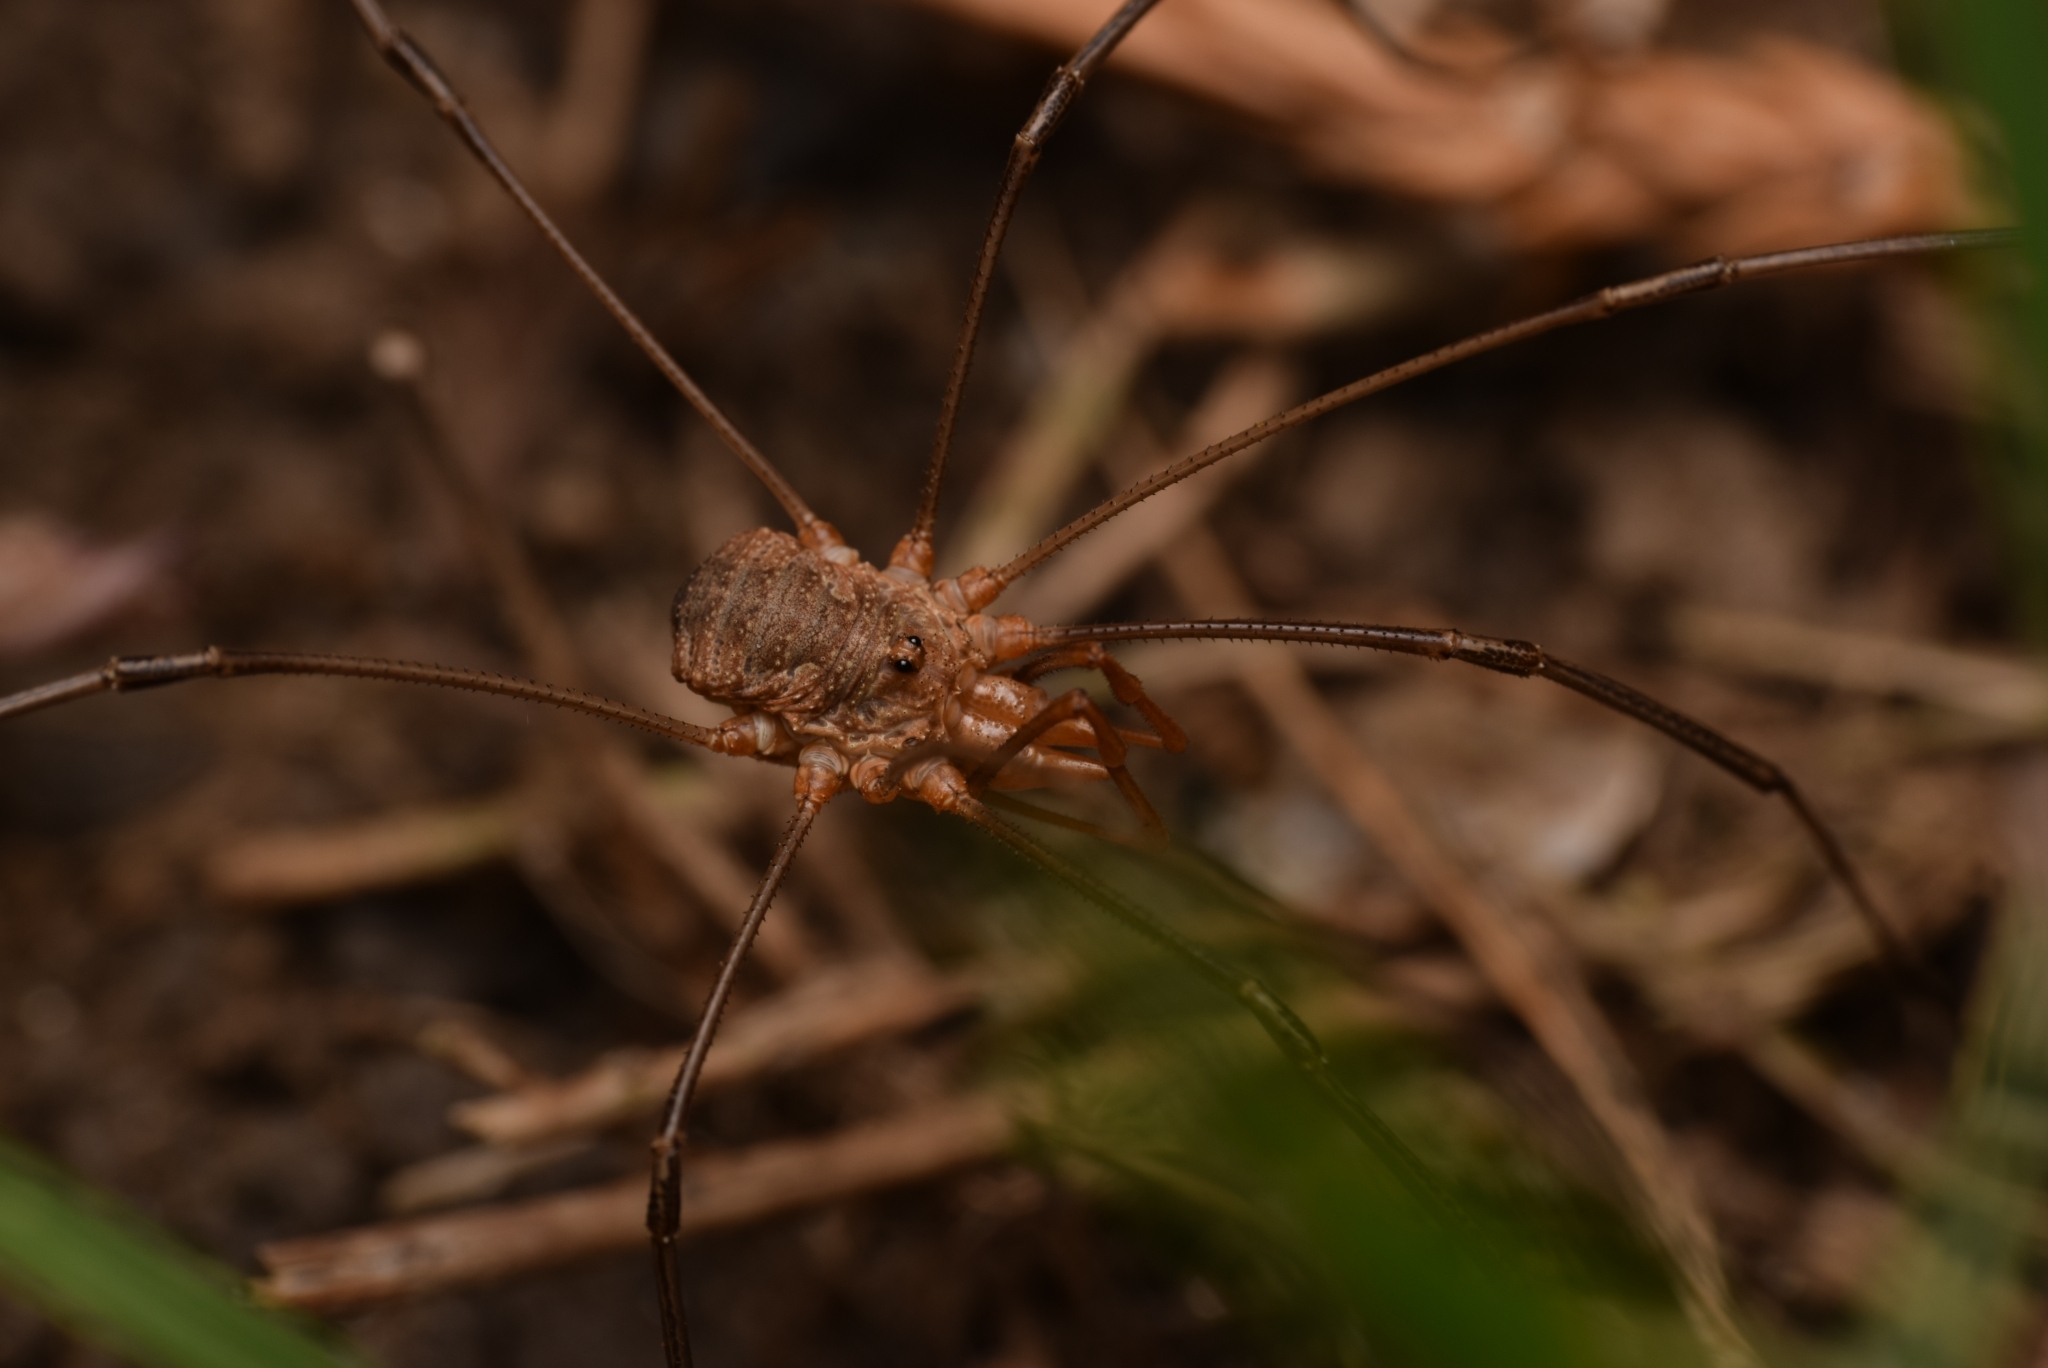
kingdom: Animalia
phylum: Arthropoda
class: Arachnida
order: Opiliones
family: Phalangiidae
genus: Phalangium
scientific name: Phalangium opilio
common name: Daddy longleg
